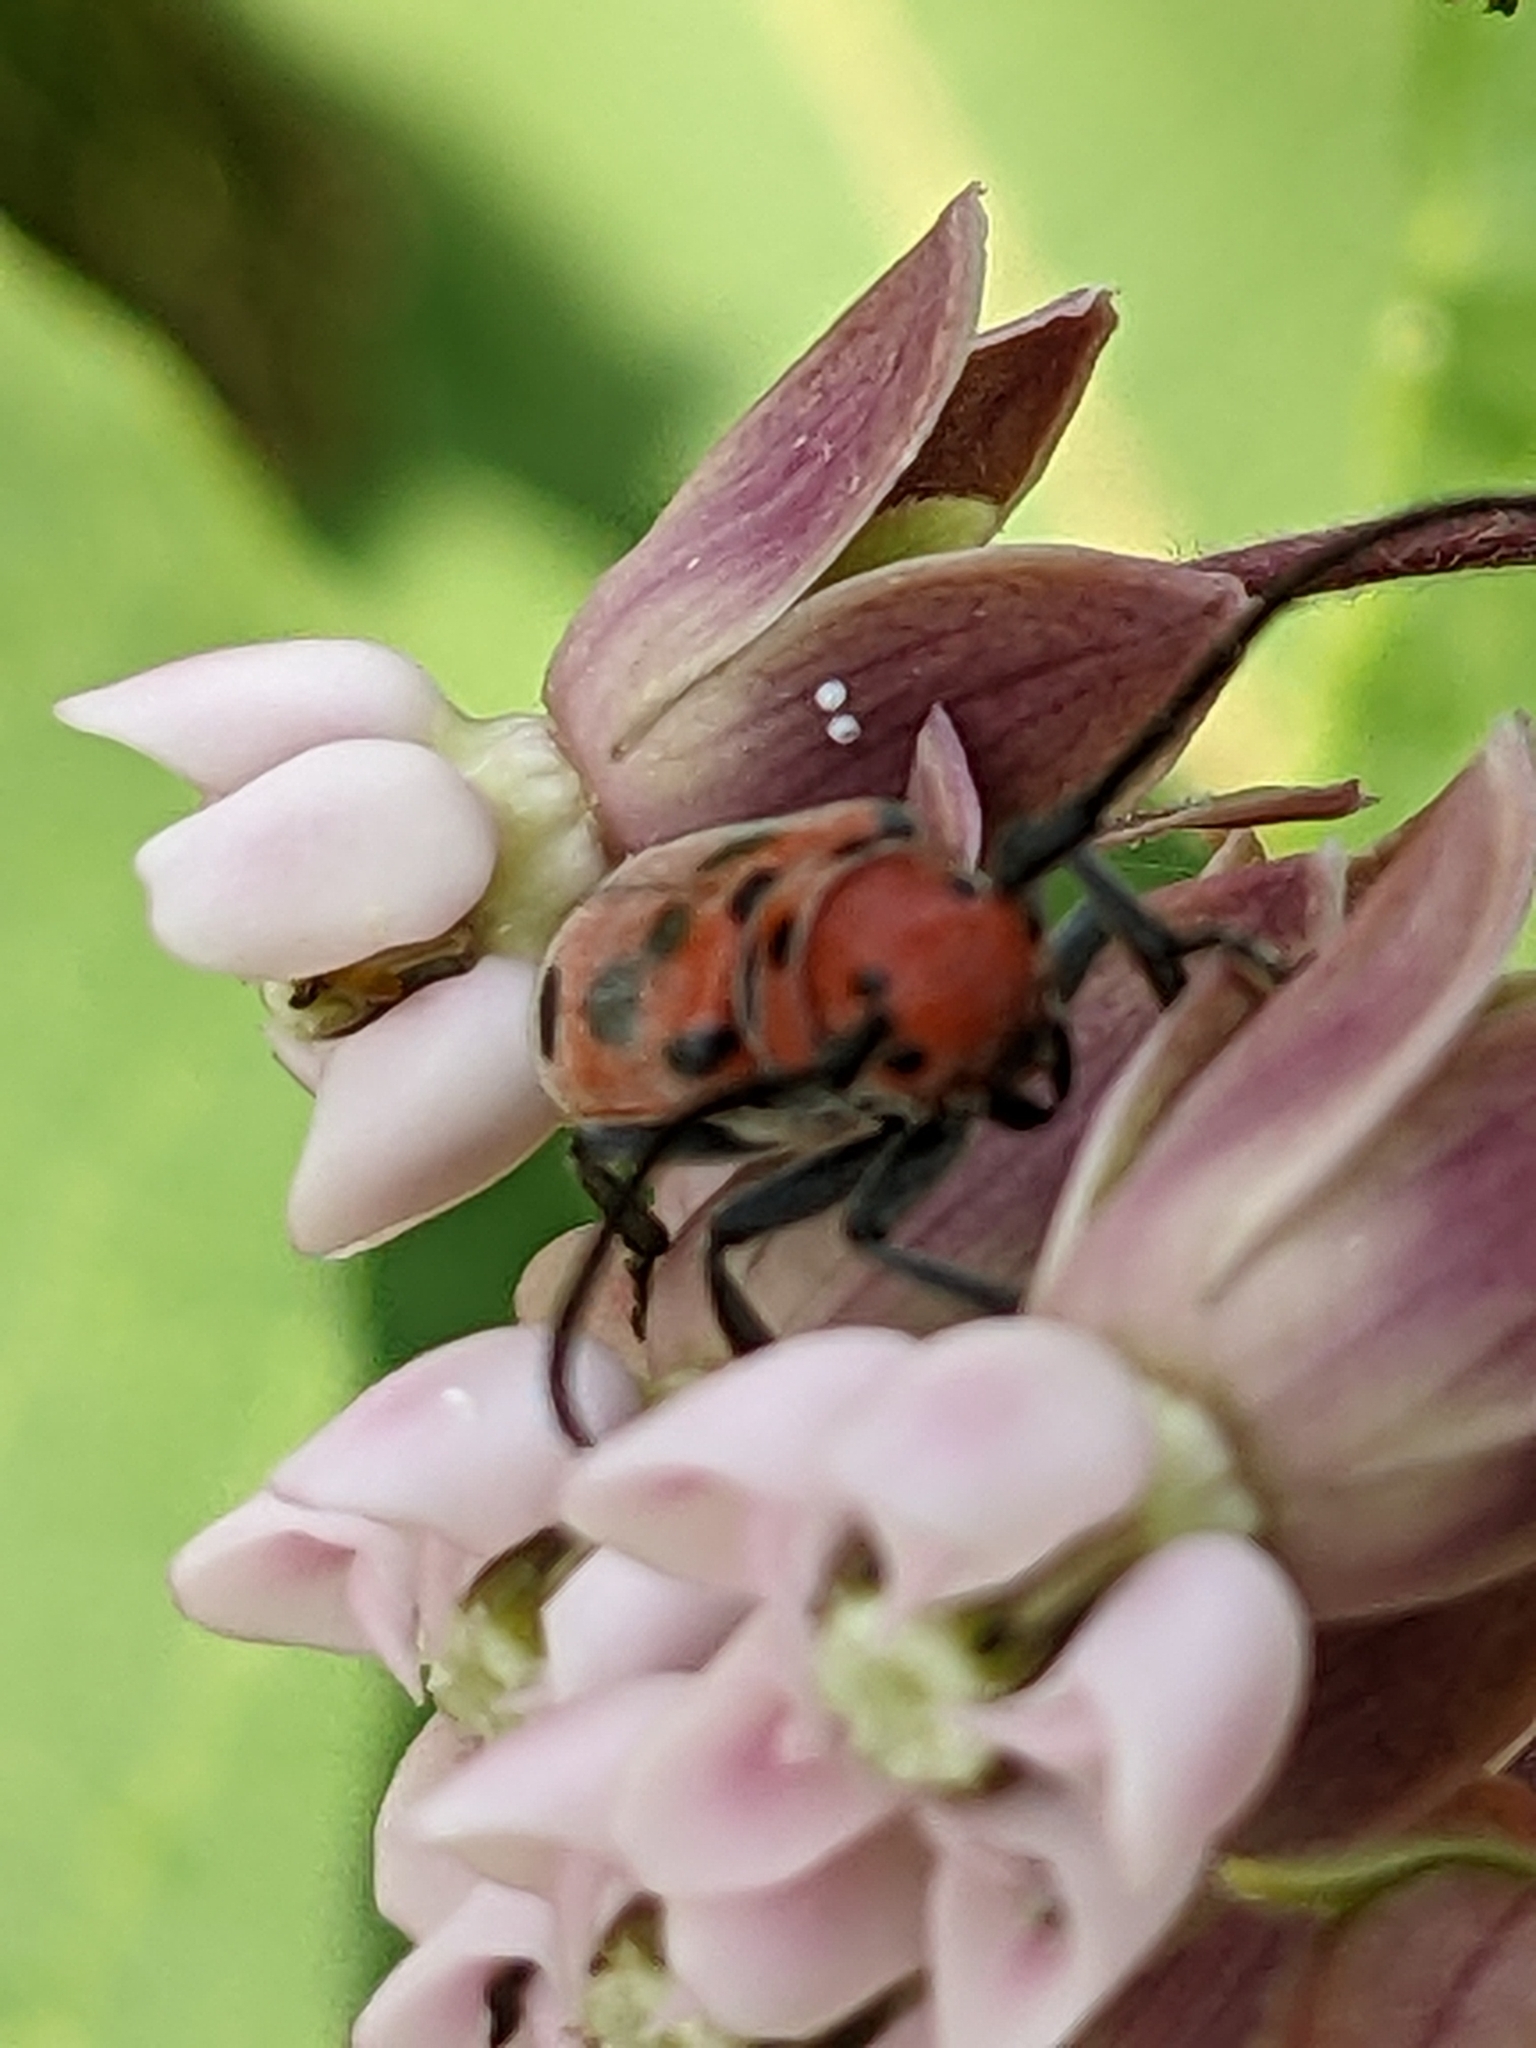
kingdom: Animalia
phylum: Arthropoda
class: Insecta
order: Coleoptera
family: Cerambycidae
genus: Tetraopes
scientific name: Tetraopes tetrophthalmus
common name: Red milkweed beetle
